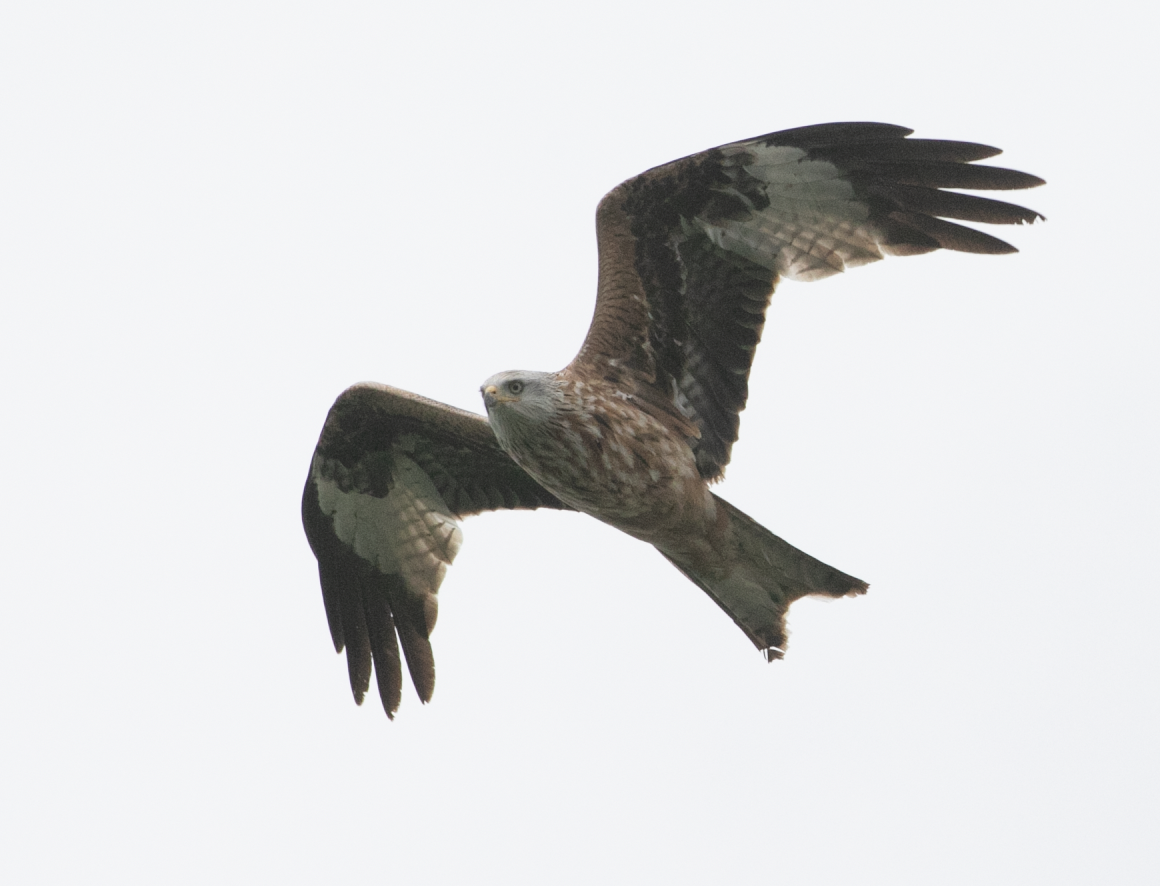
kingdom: Animalia
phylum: Chordata
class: Aves
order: Accipitriformes
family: Accipitridae
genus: Milvus
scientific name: Milvus milvus
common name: Red kite
